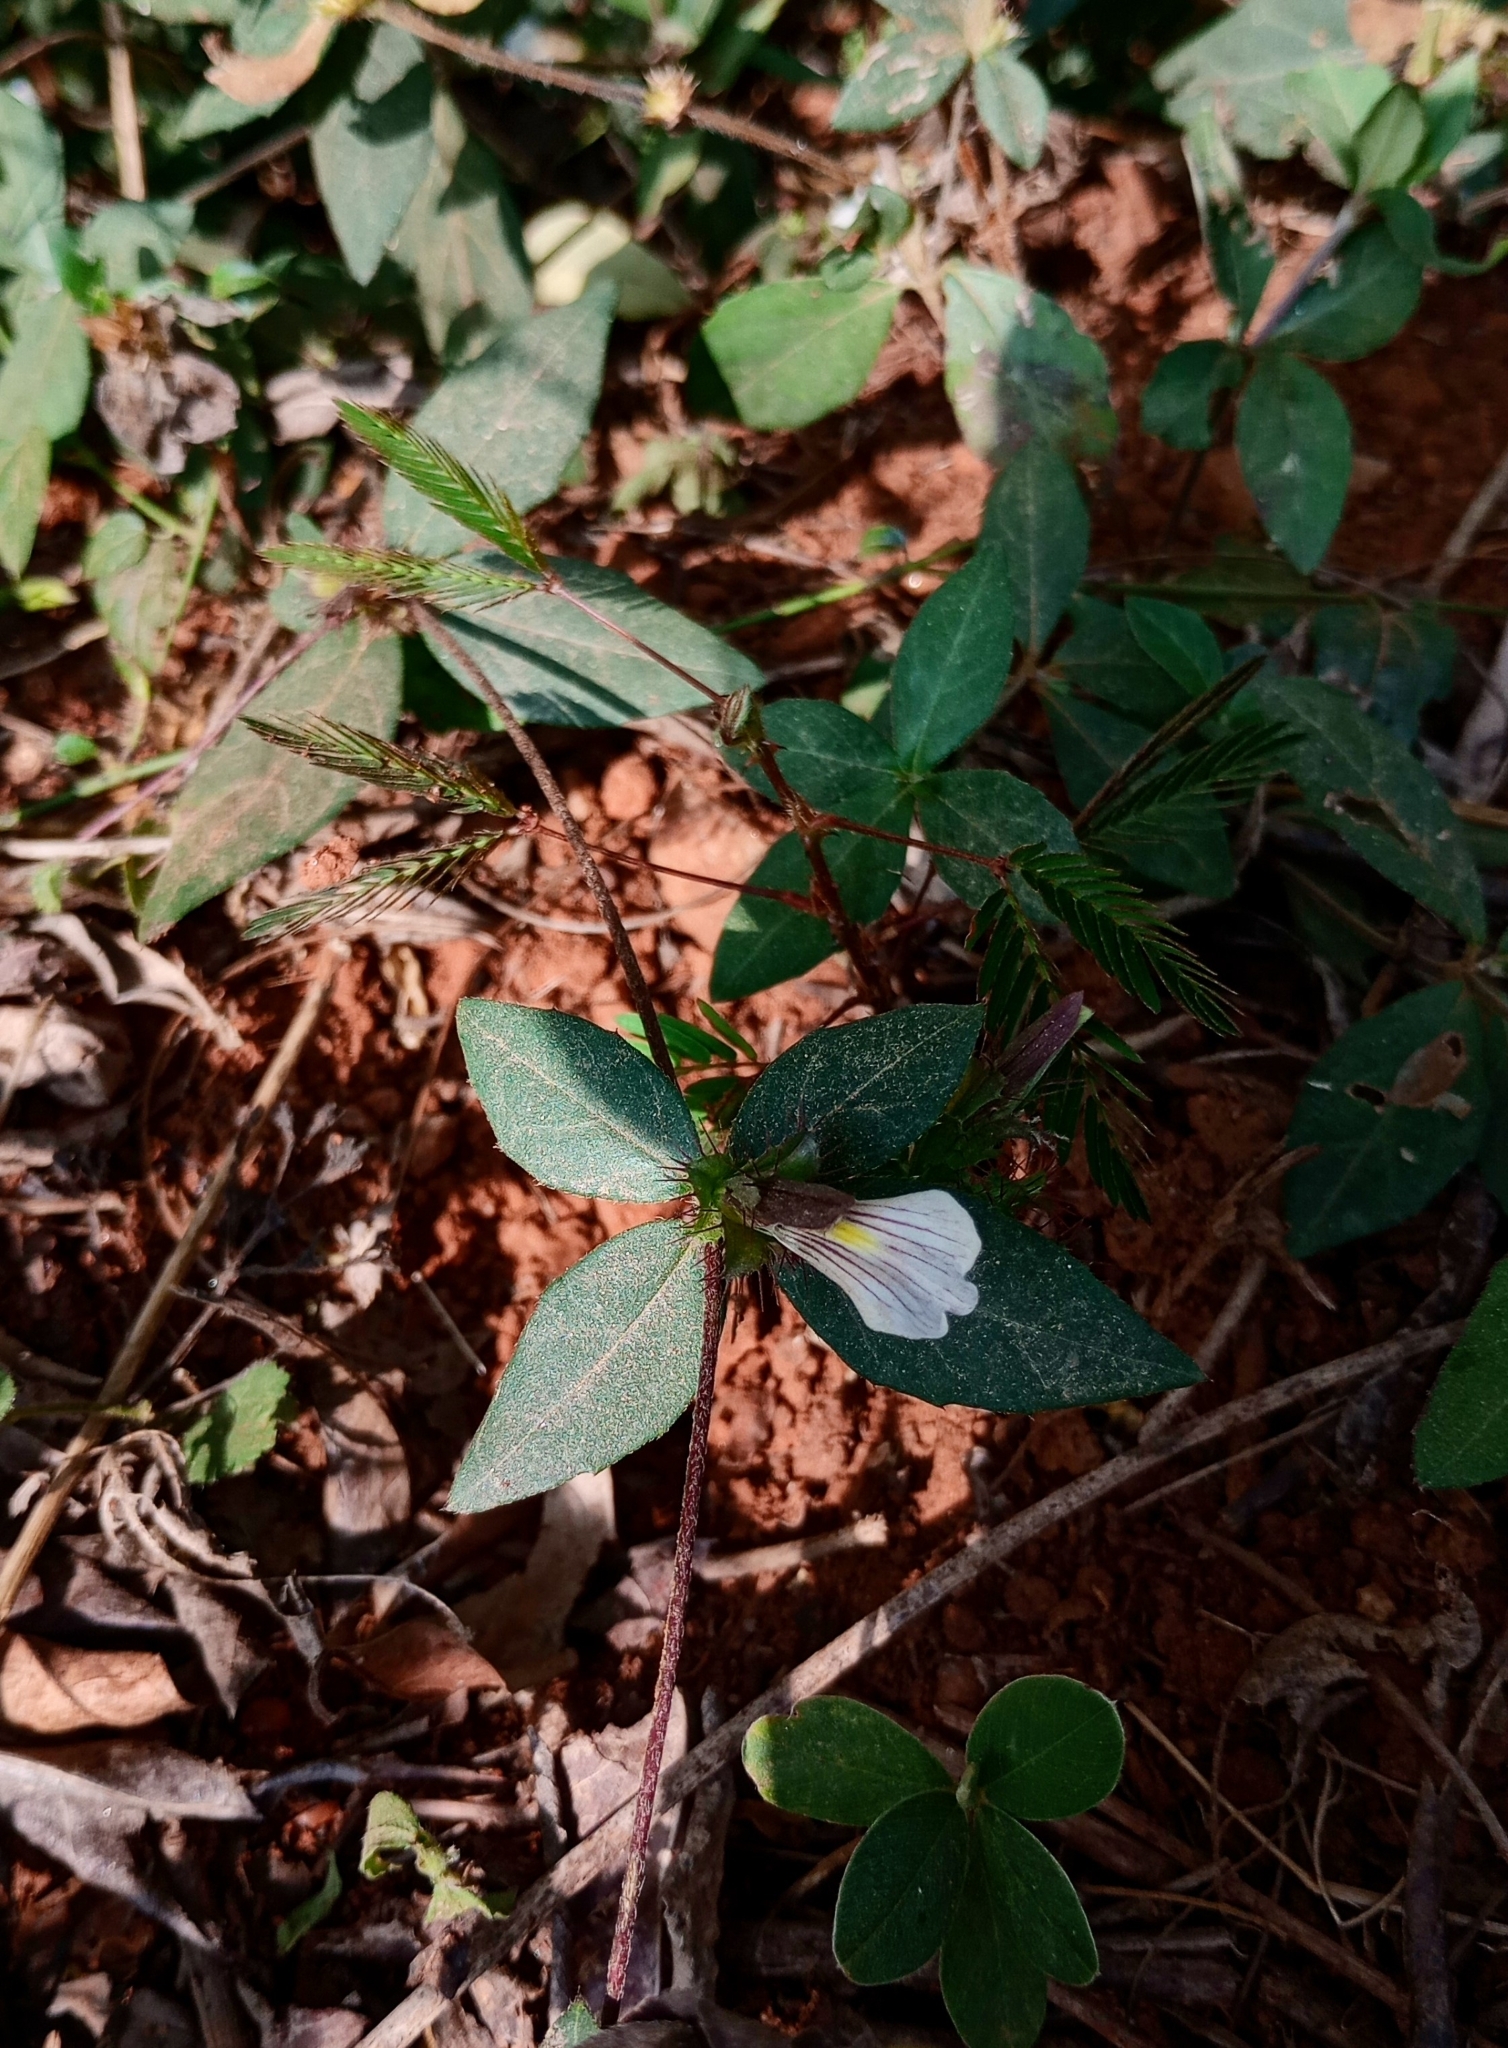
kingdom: Plantae
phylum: Tracheophyta
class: Magnoliopsida
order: Lamiales
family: Acanthaceae
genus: Blepharis
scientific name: Blepharis maderaspatensis
